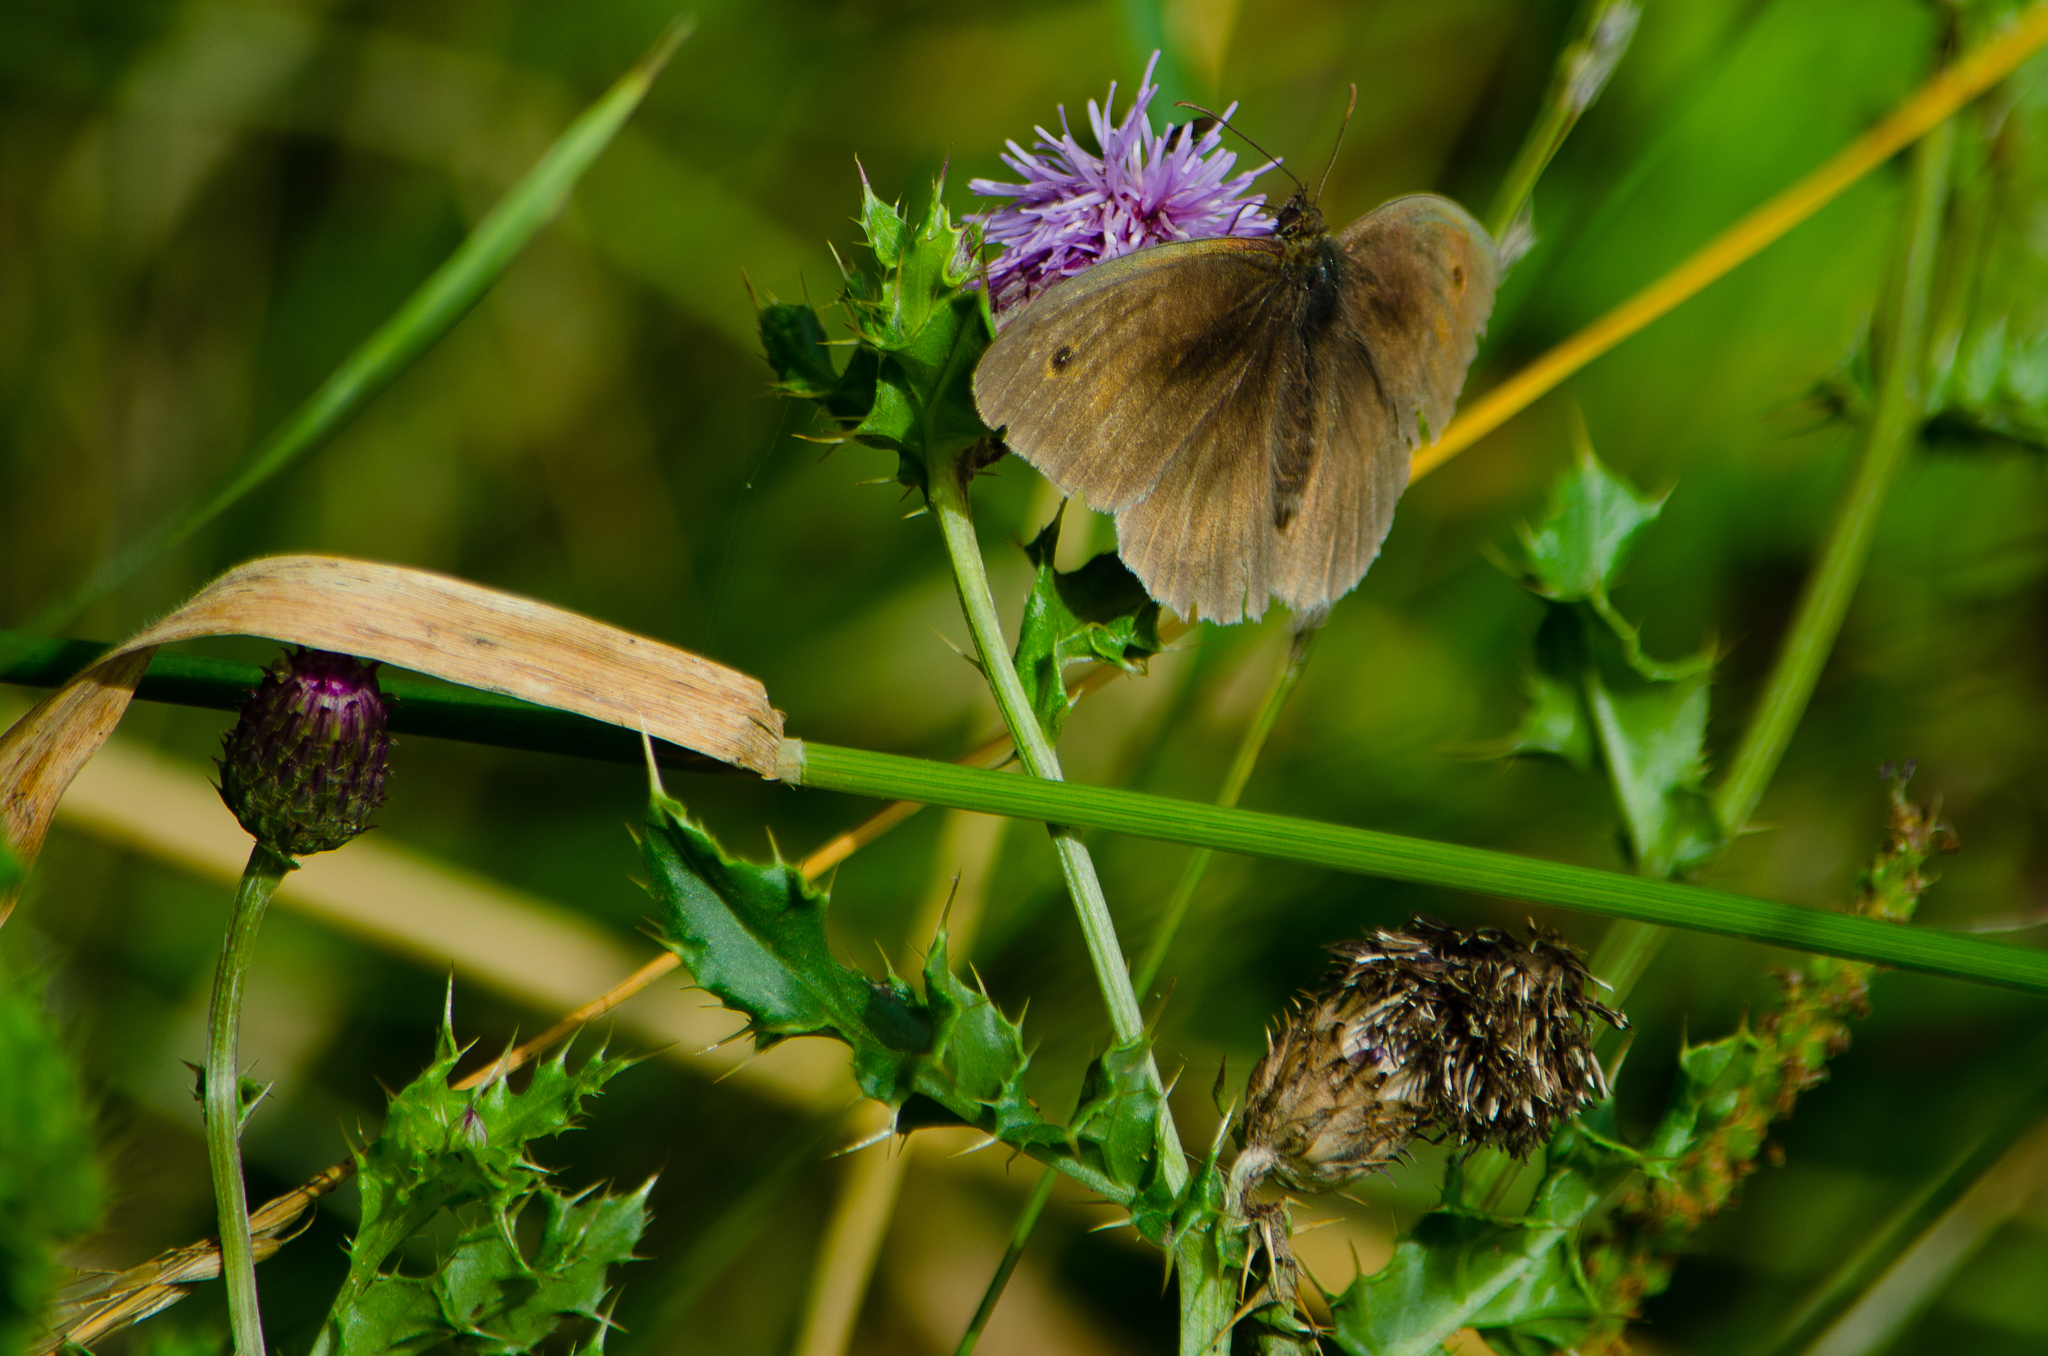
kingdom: Animalia
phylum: Arthropoda
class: Insecta
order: Lepidoptera
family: Nymphalidae
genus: Maniola
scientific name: Maniola jurtina
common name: Meadow brown
